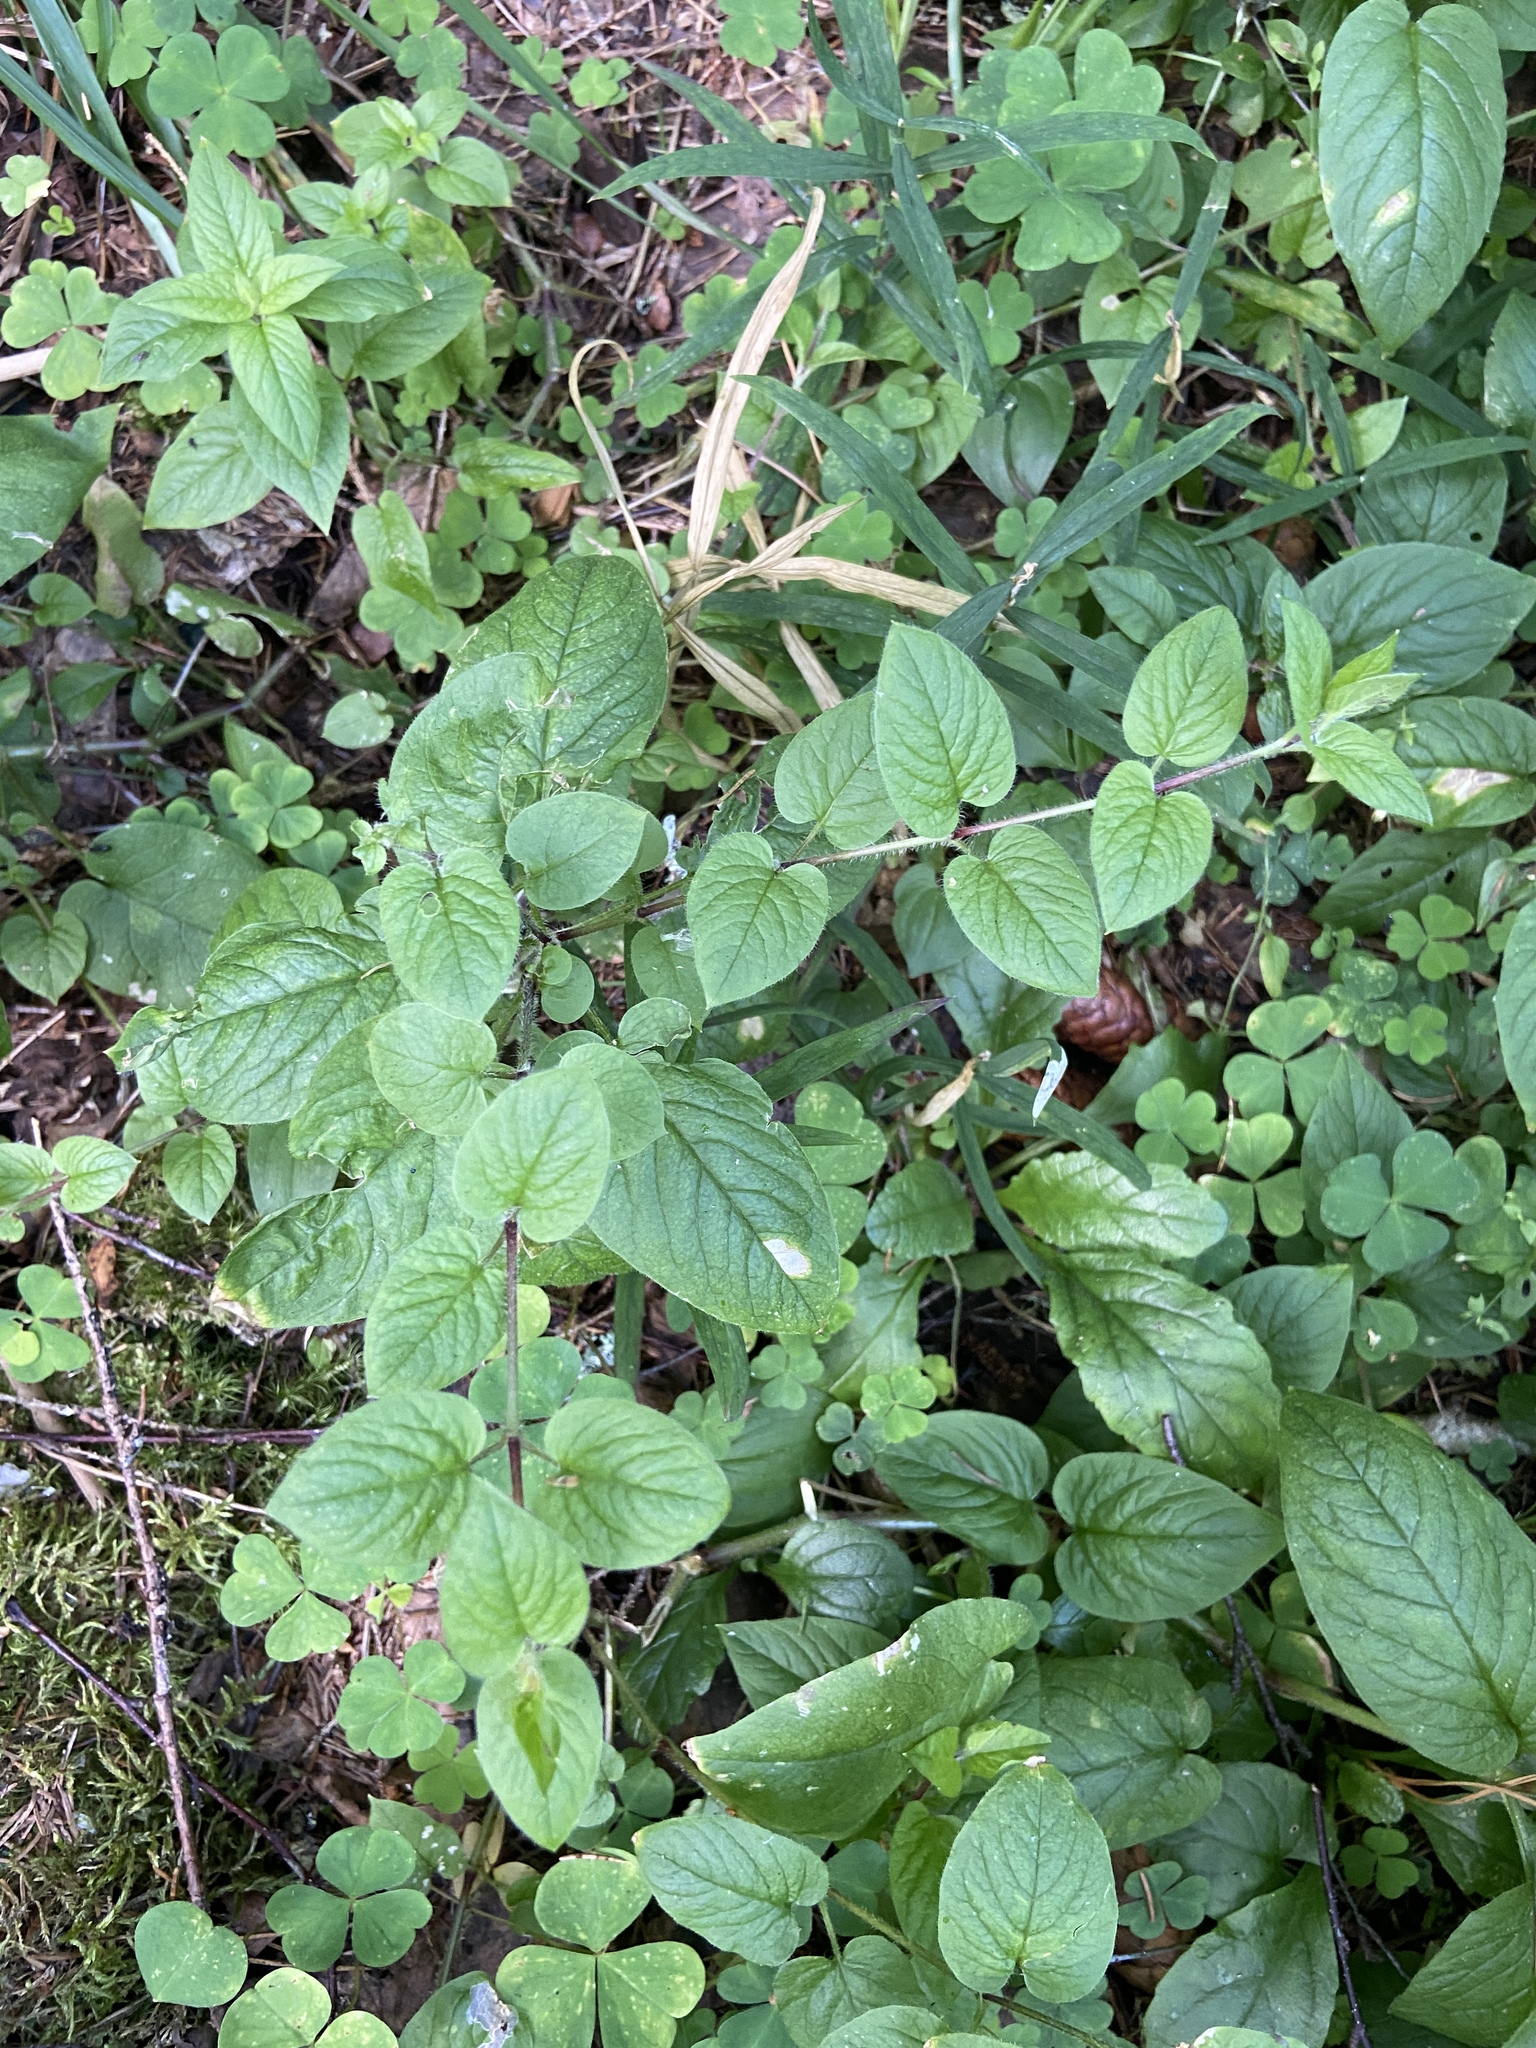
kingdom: Plantae
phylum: Tracheophyta
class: Magnoliopsida
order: Caryophyllales
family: Caryophyllaceae
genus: Stellaria
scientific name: Stellaria nemorum
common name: Wood stitchwort
